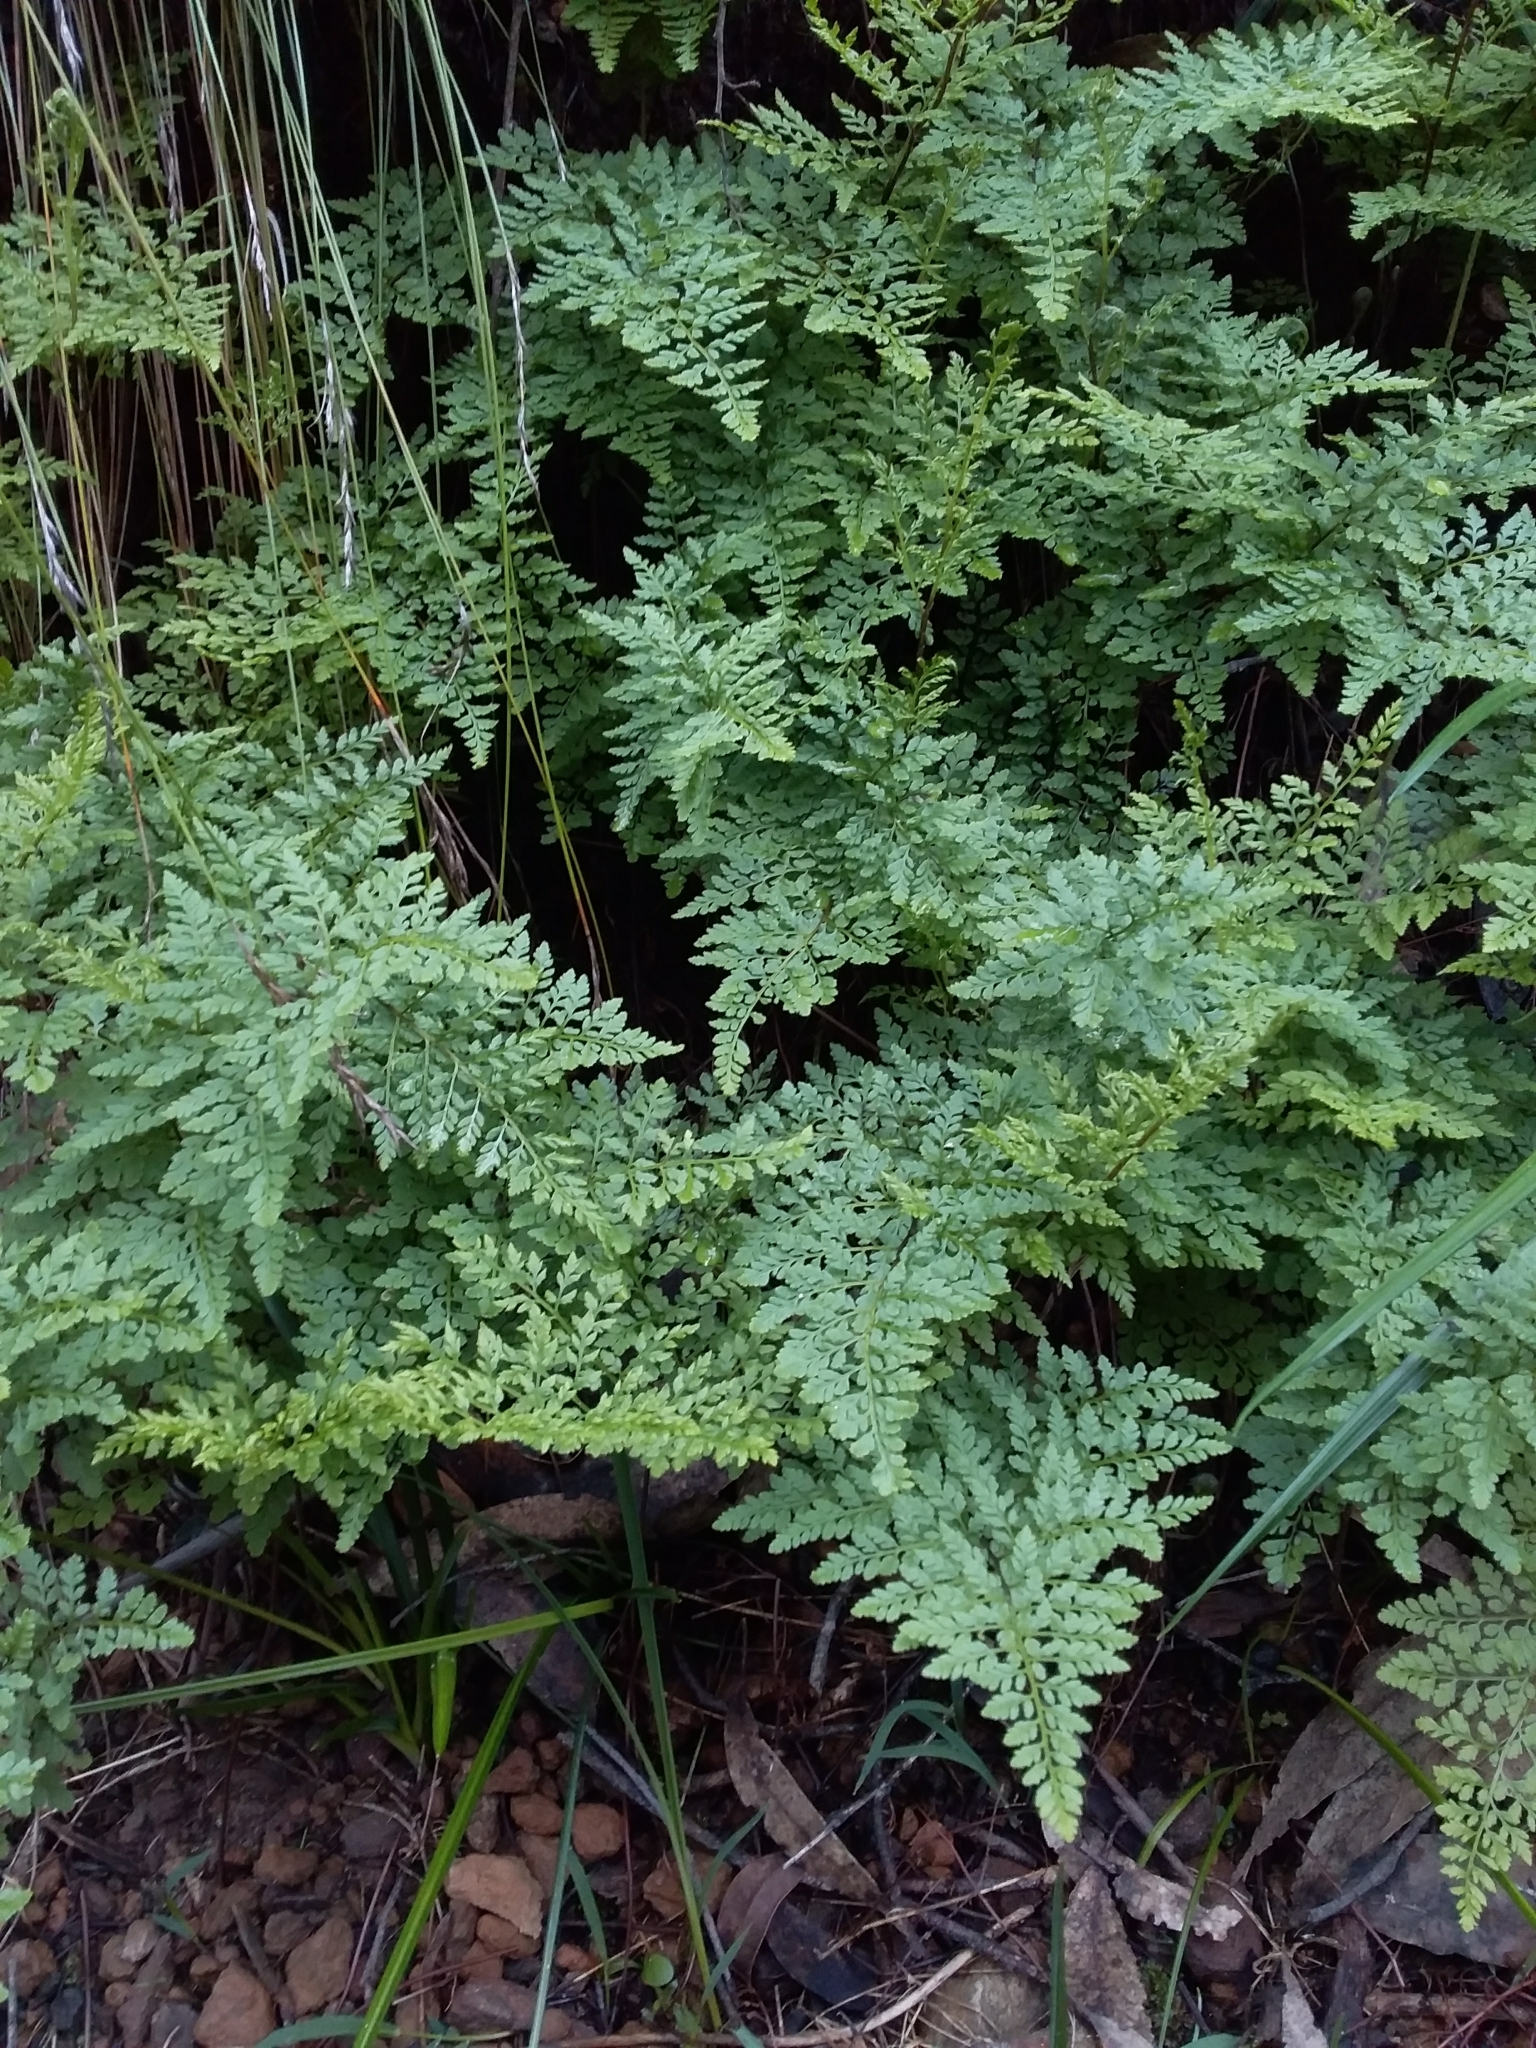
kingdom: Plantae
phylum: Tracheophyta
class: Polypodiopsida
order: Polypodiales
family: Pteridaceae
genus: Cheilanthes
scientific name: Cheilanthes austrotenuifolia
